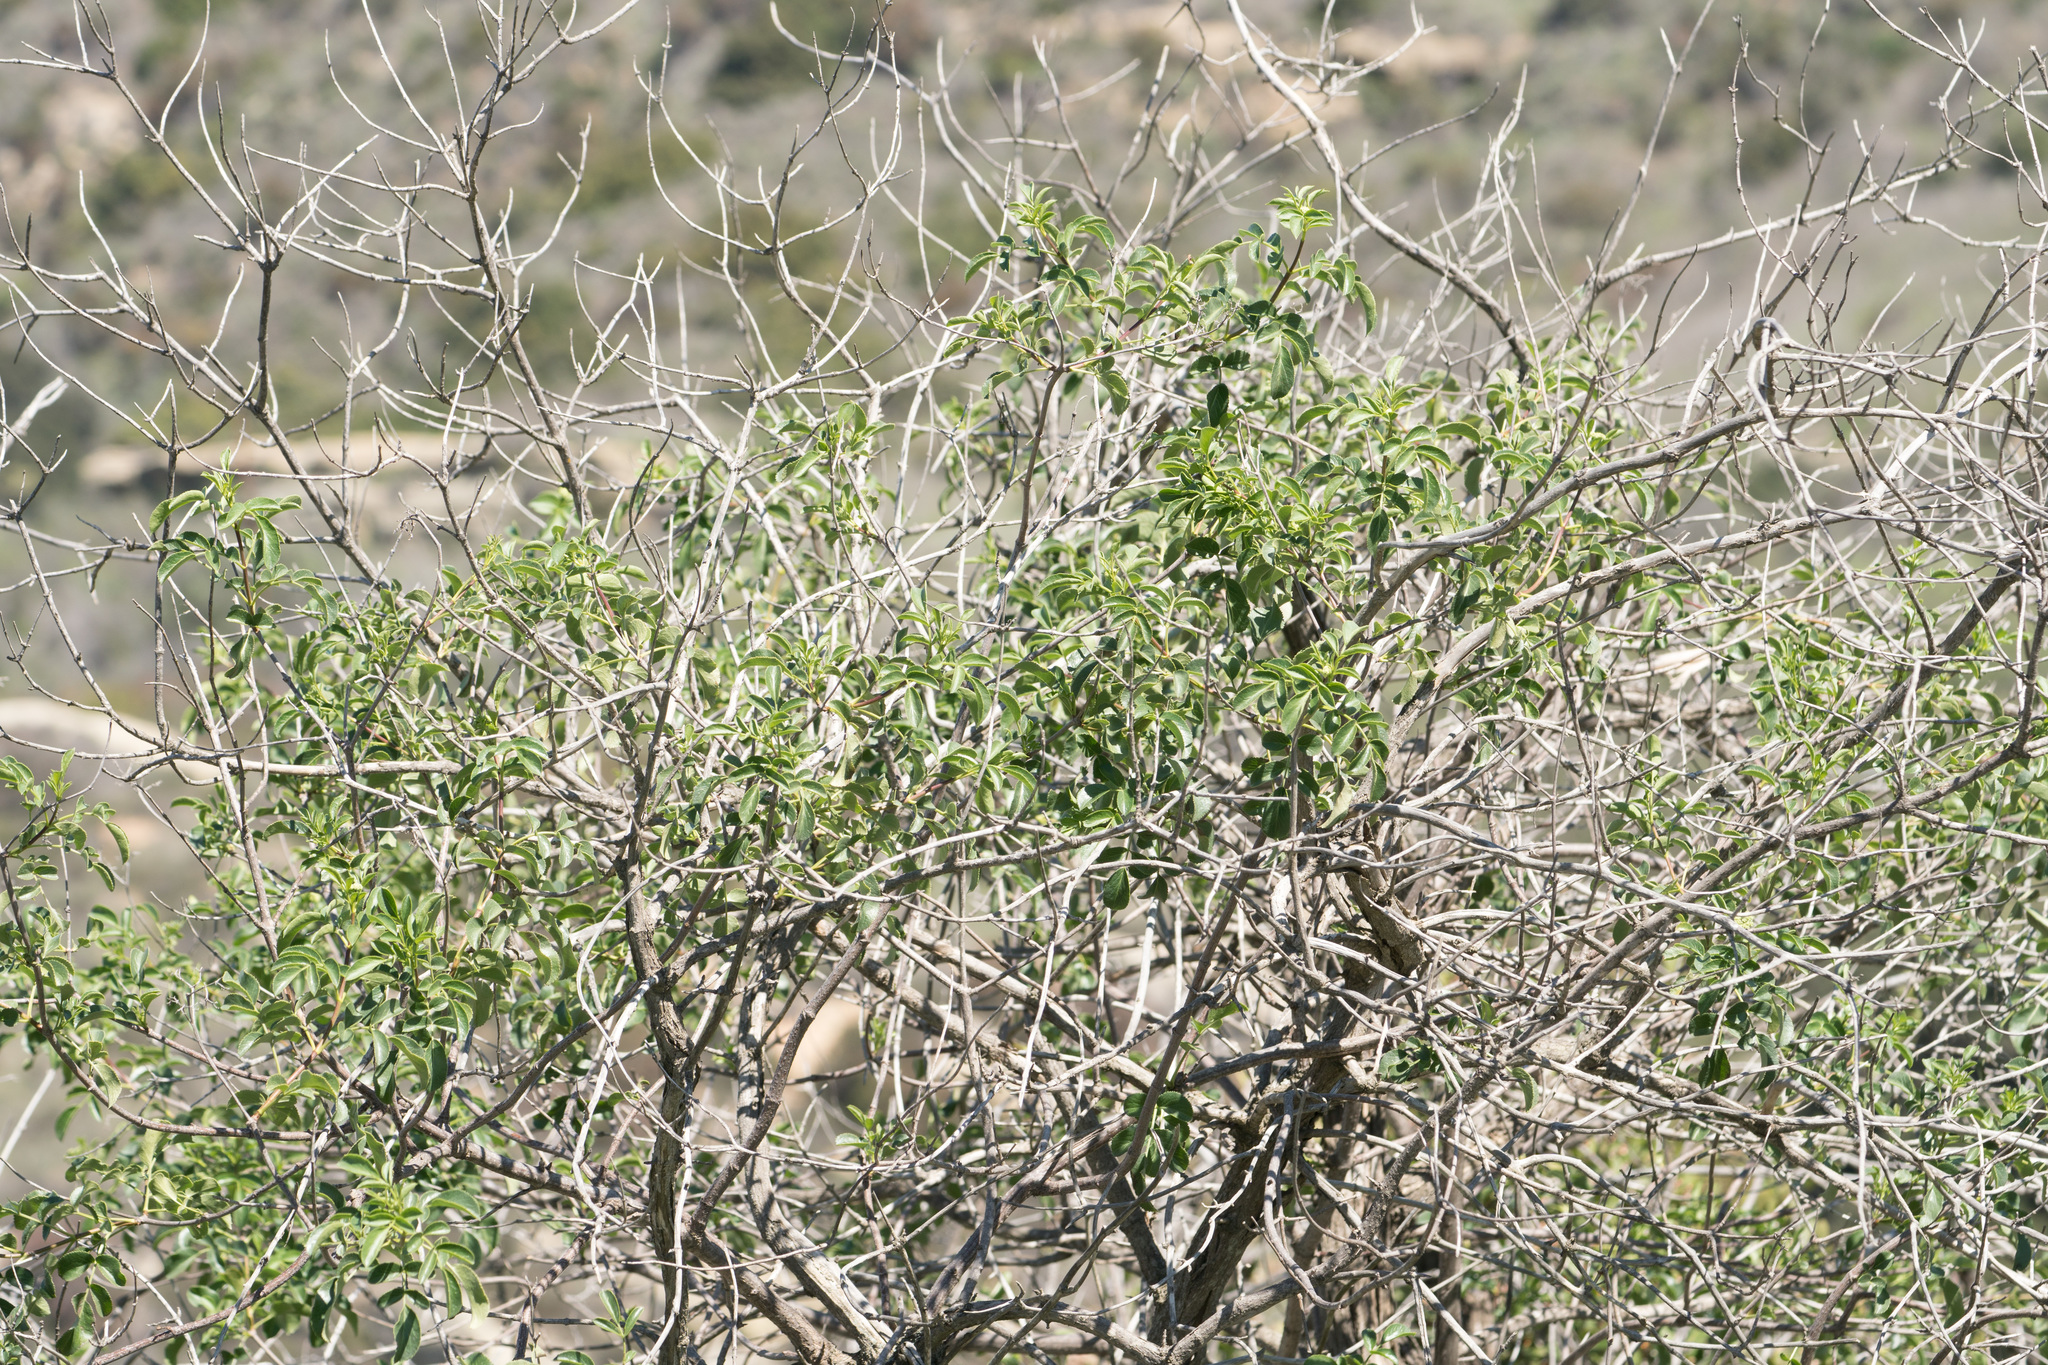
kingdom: Plantae
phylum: Tracheophyta
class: Magnoliopsida
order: Dipsacales
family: Viburnaceae
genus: Sambucus
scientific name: Sambucus cerulea
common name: Blue elder
